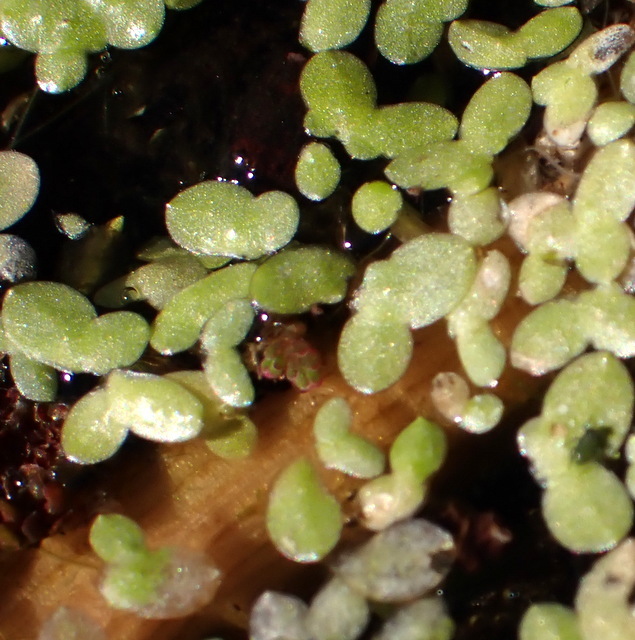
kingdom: Plantae
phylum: Tracheophyta
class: Liliopsida
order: Alismatales
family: Araceae
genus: Lemna
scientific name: Lemna minor
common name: Common duckweed
